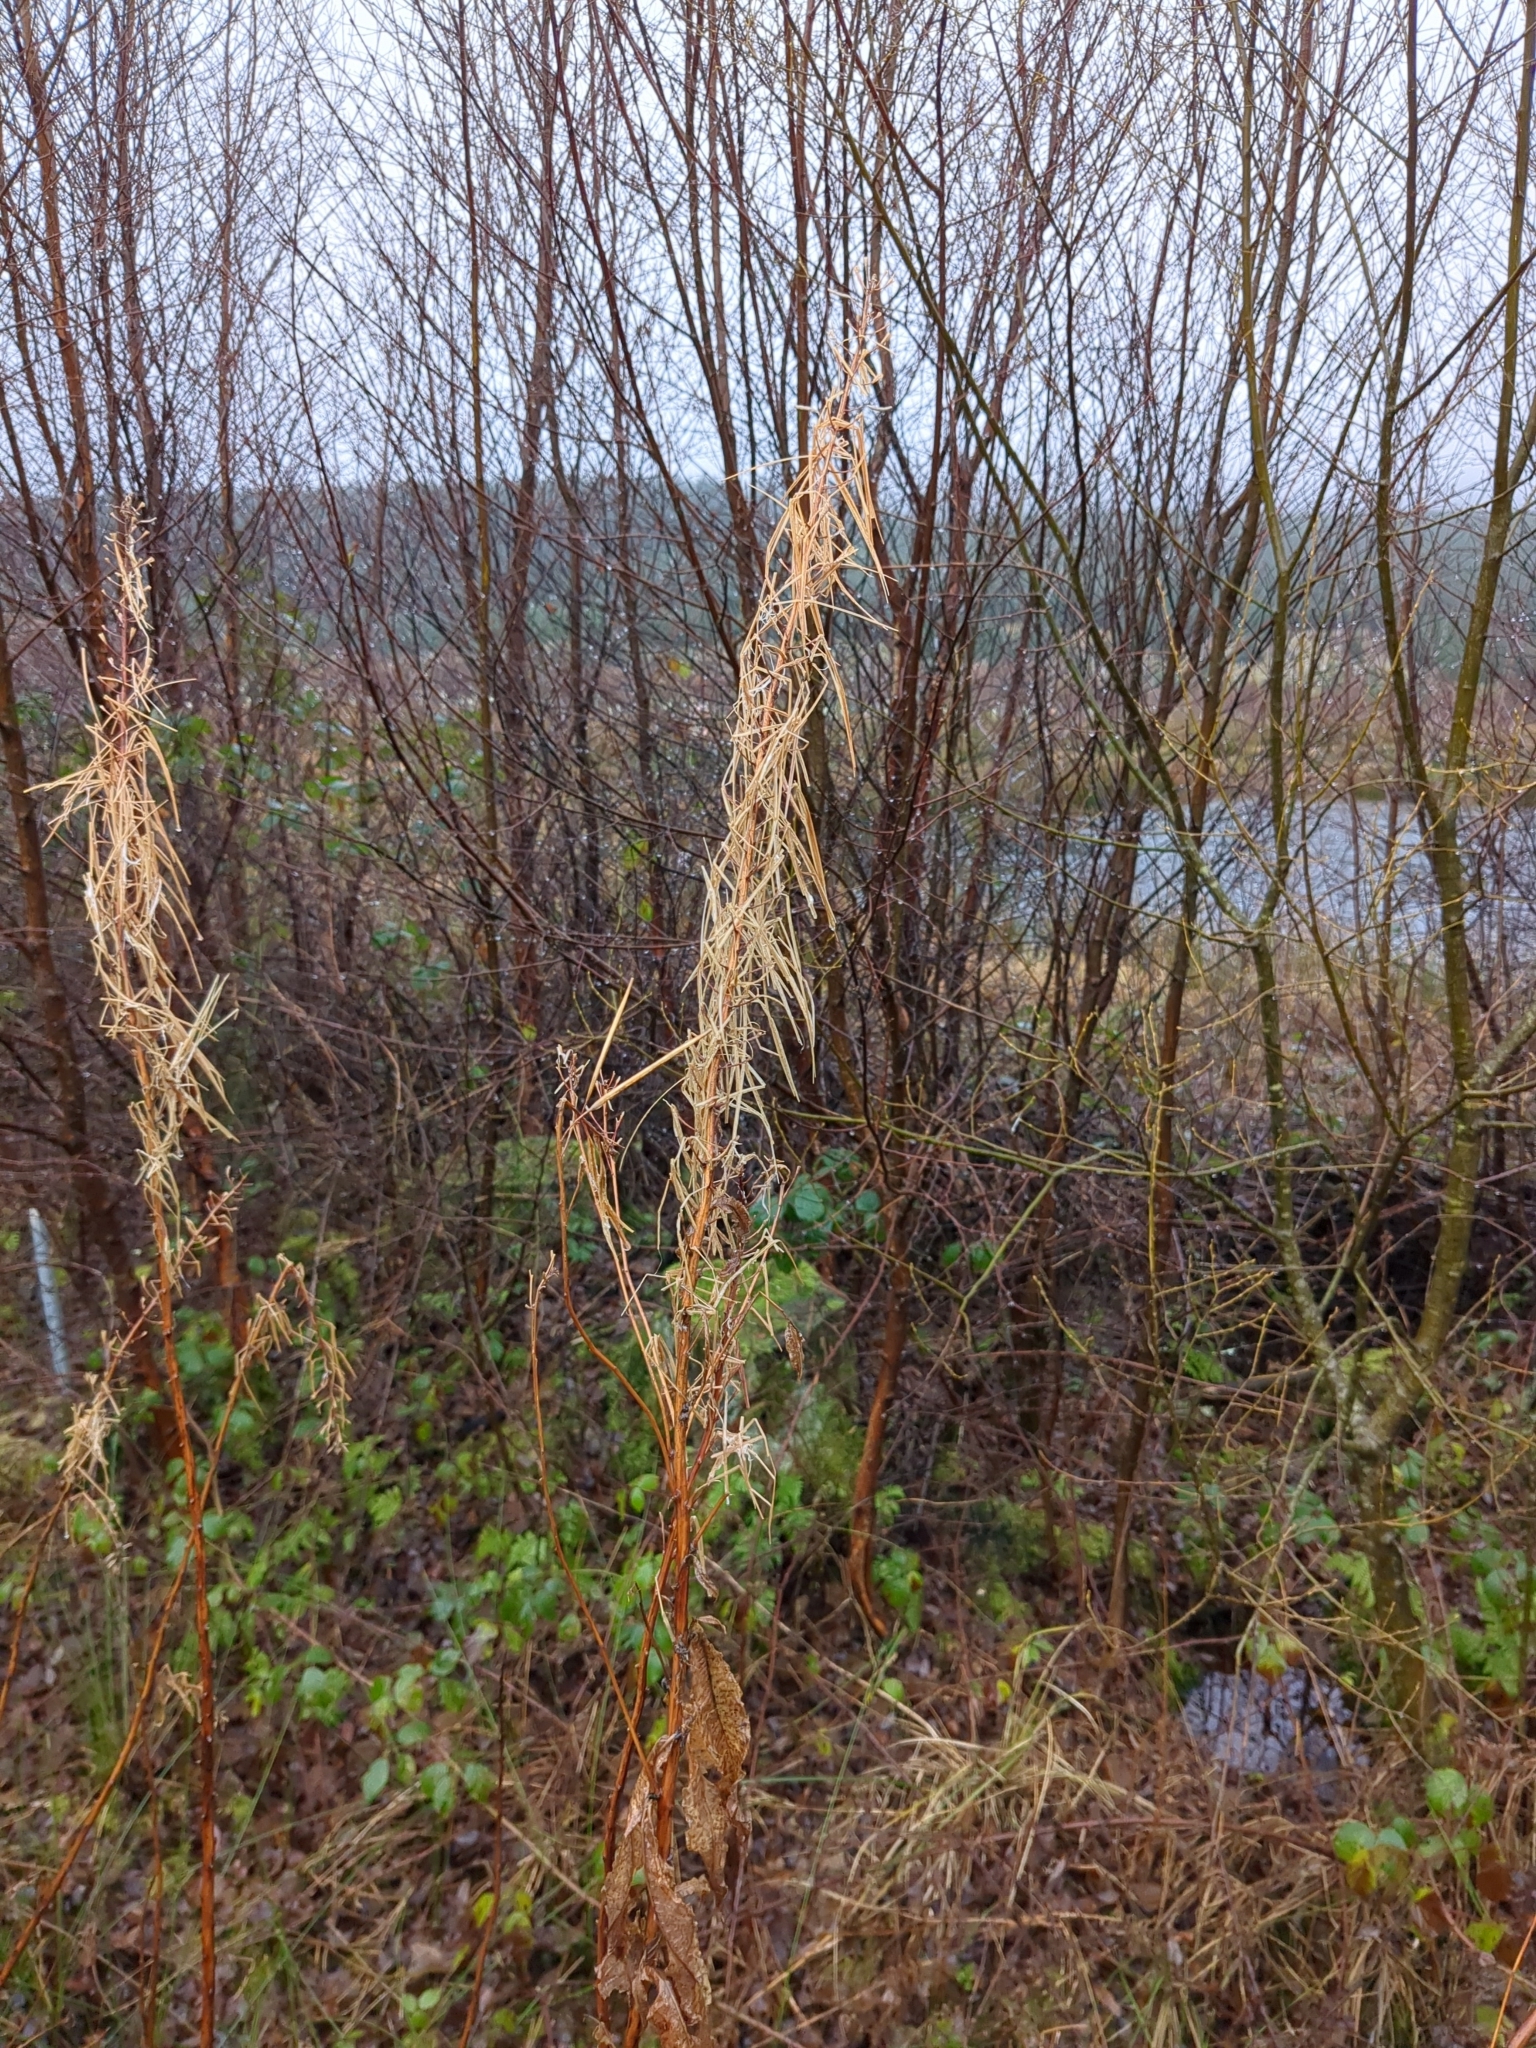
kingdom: Plantae
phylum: Tracheophyta
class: Magnoliopsida
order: Myrtales
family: Onagraceae
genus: Chamaenerion
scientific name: Chamaenerion angustifolium
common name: Fireweed
